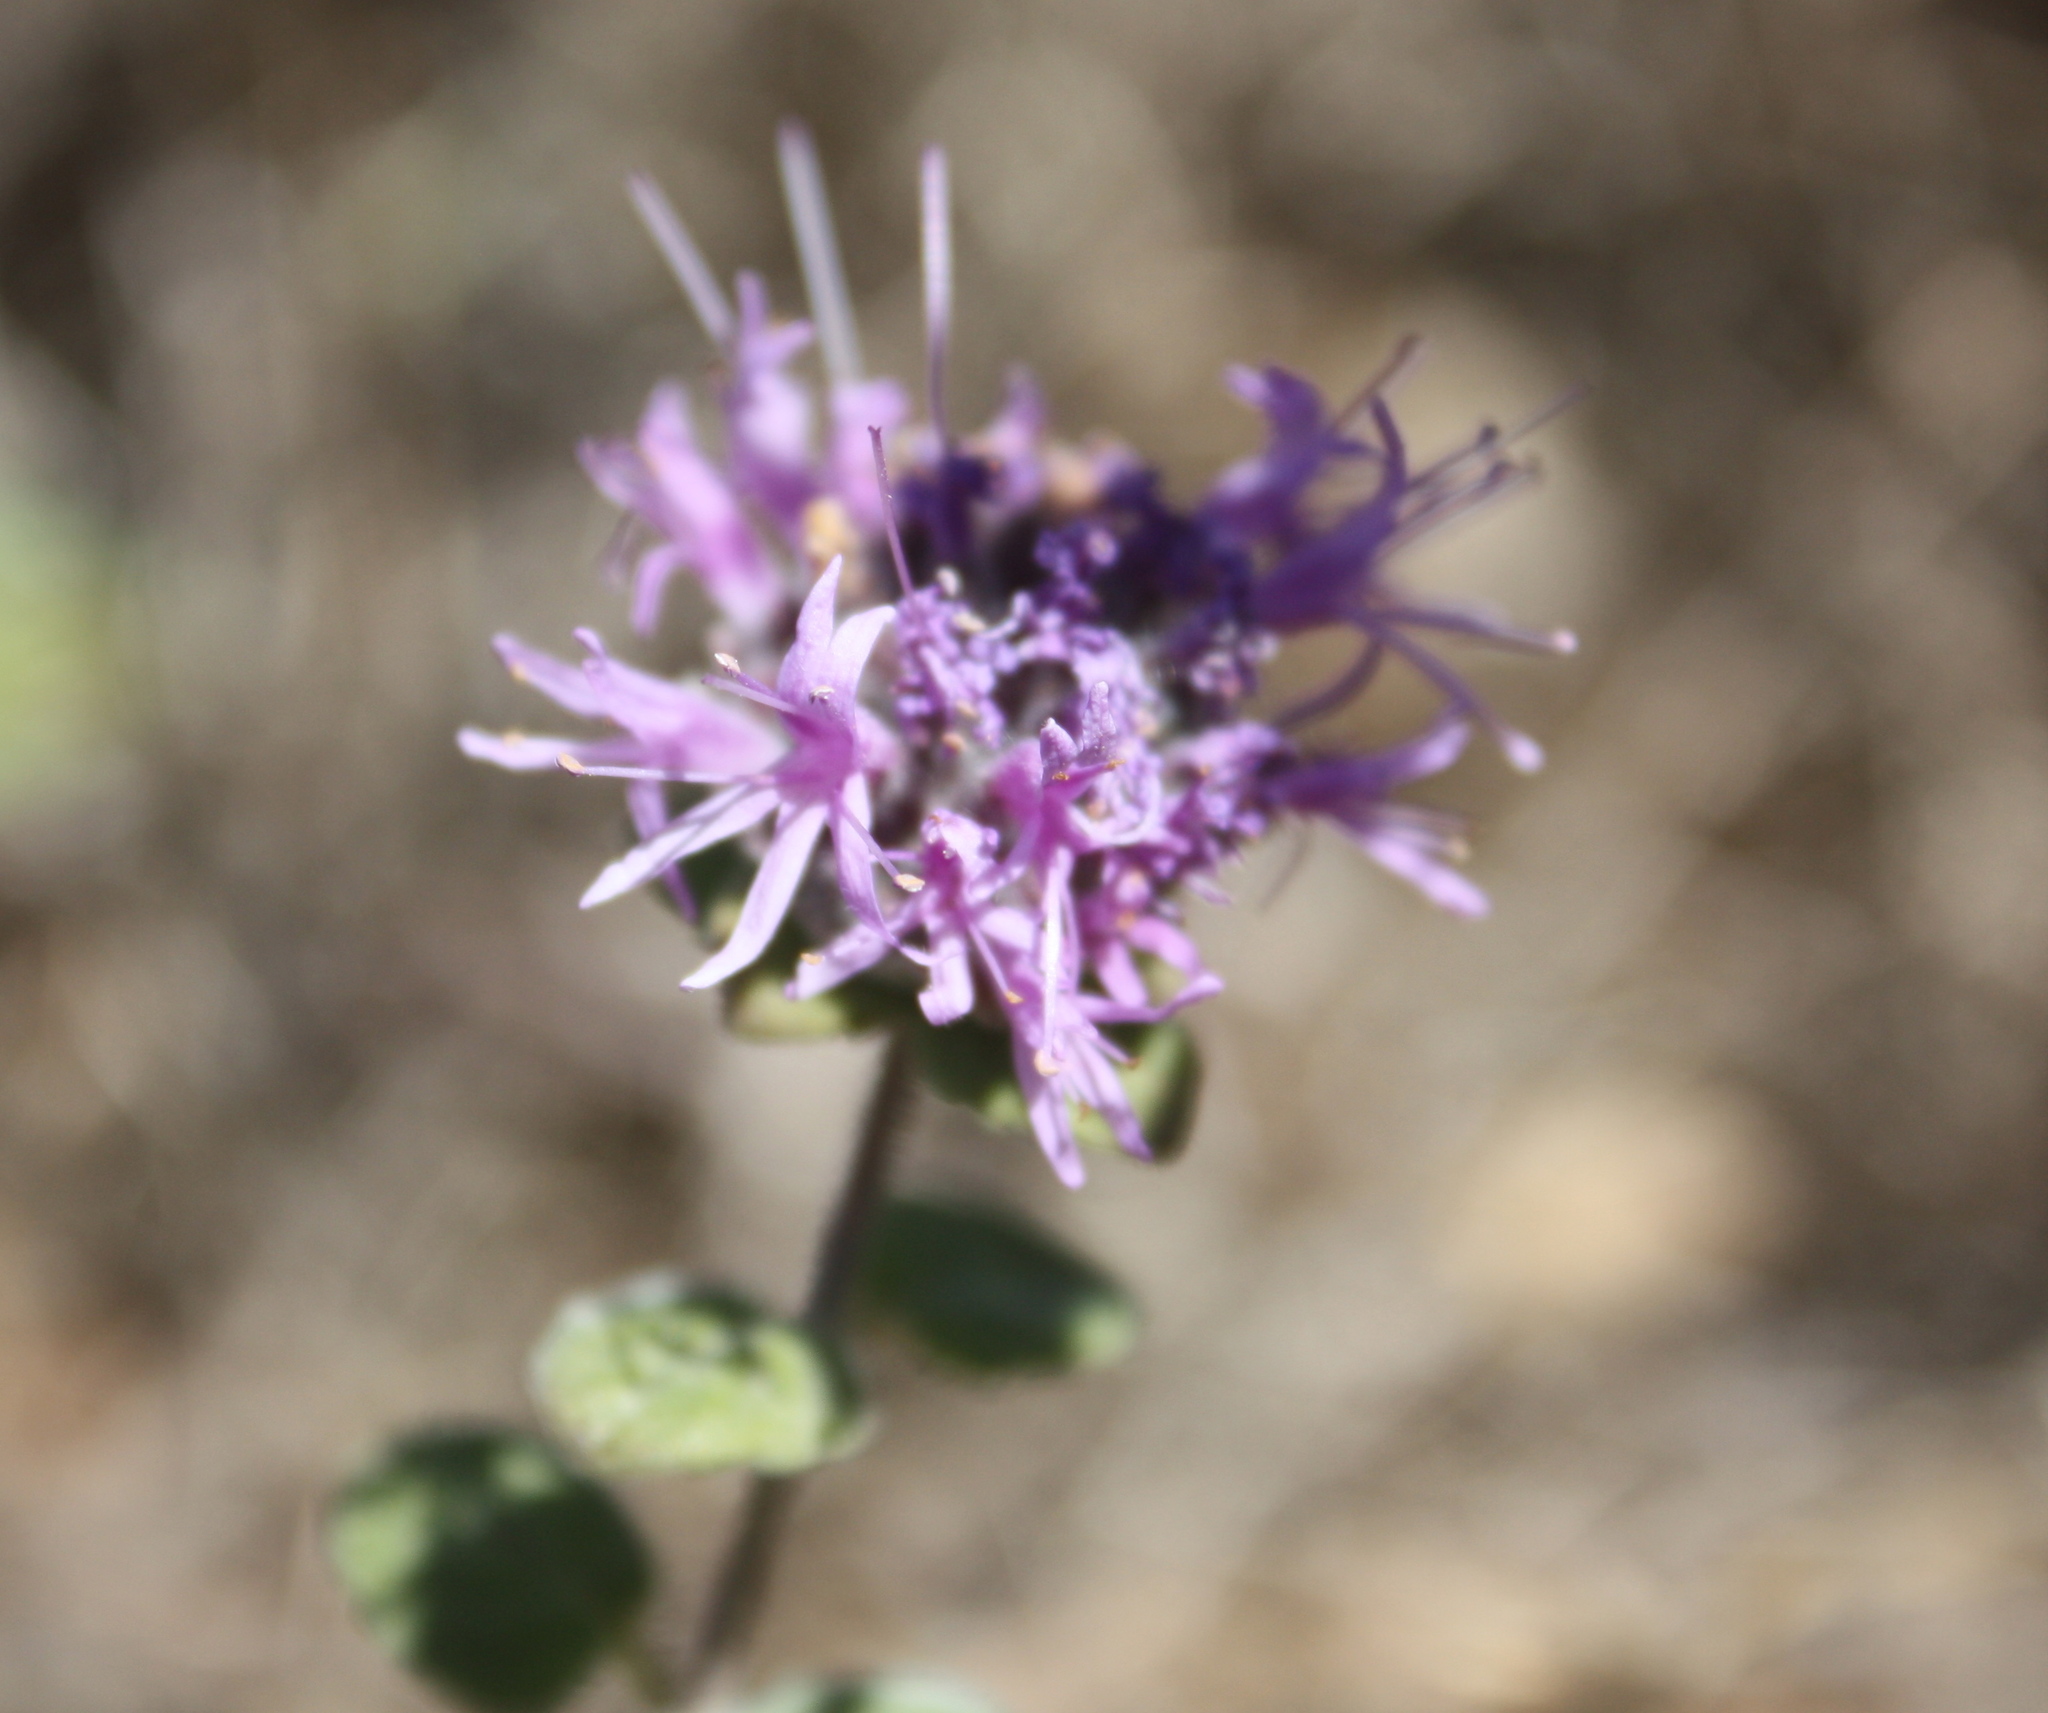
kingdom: Plantae
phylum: Tracheophyta
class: Magnoliopsida
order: Lamiales
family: Lamiaceae
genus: Monardella
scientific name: Monardella odoratissima
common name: Pacific monardella
